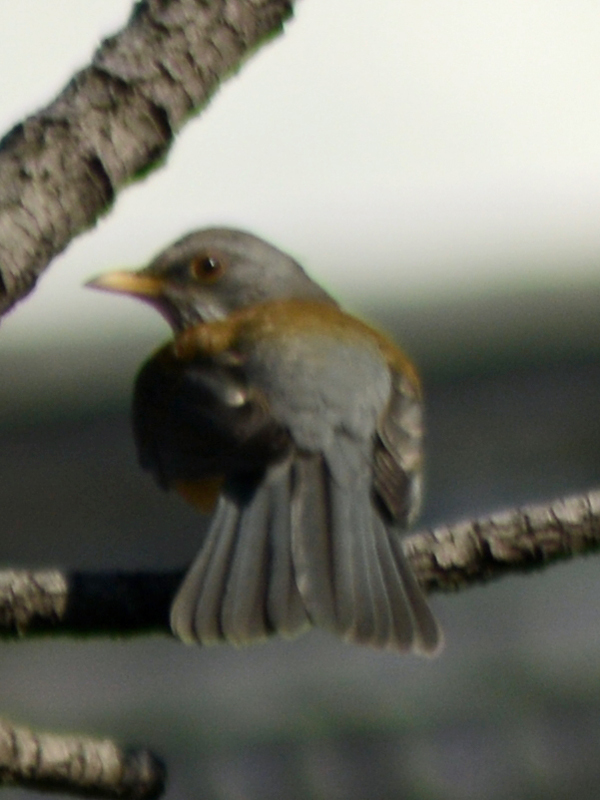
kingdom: Animalia
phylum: Chordata
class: Aves
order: Passeriformes
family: Turdidae
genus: Turdus
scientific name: Turdus rufopalliatus
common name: Rufous-backed robin
